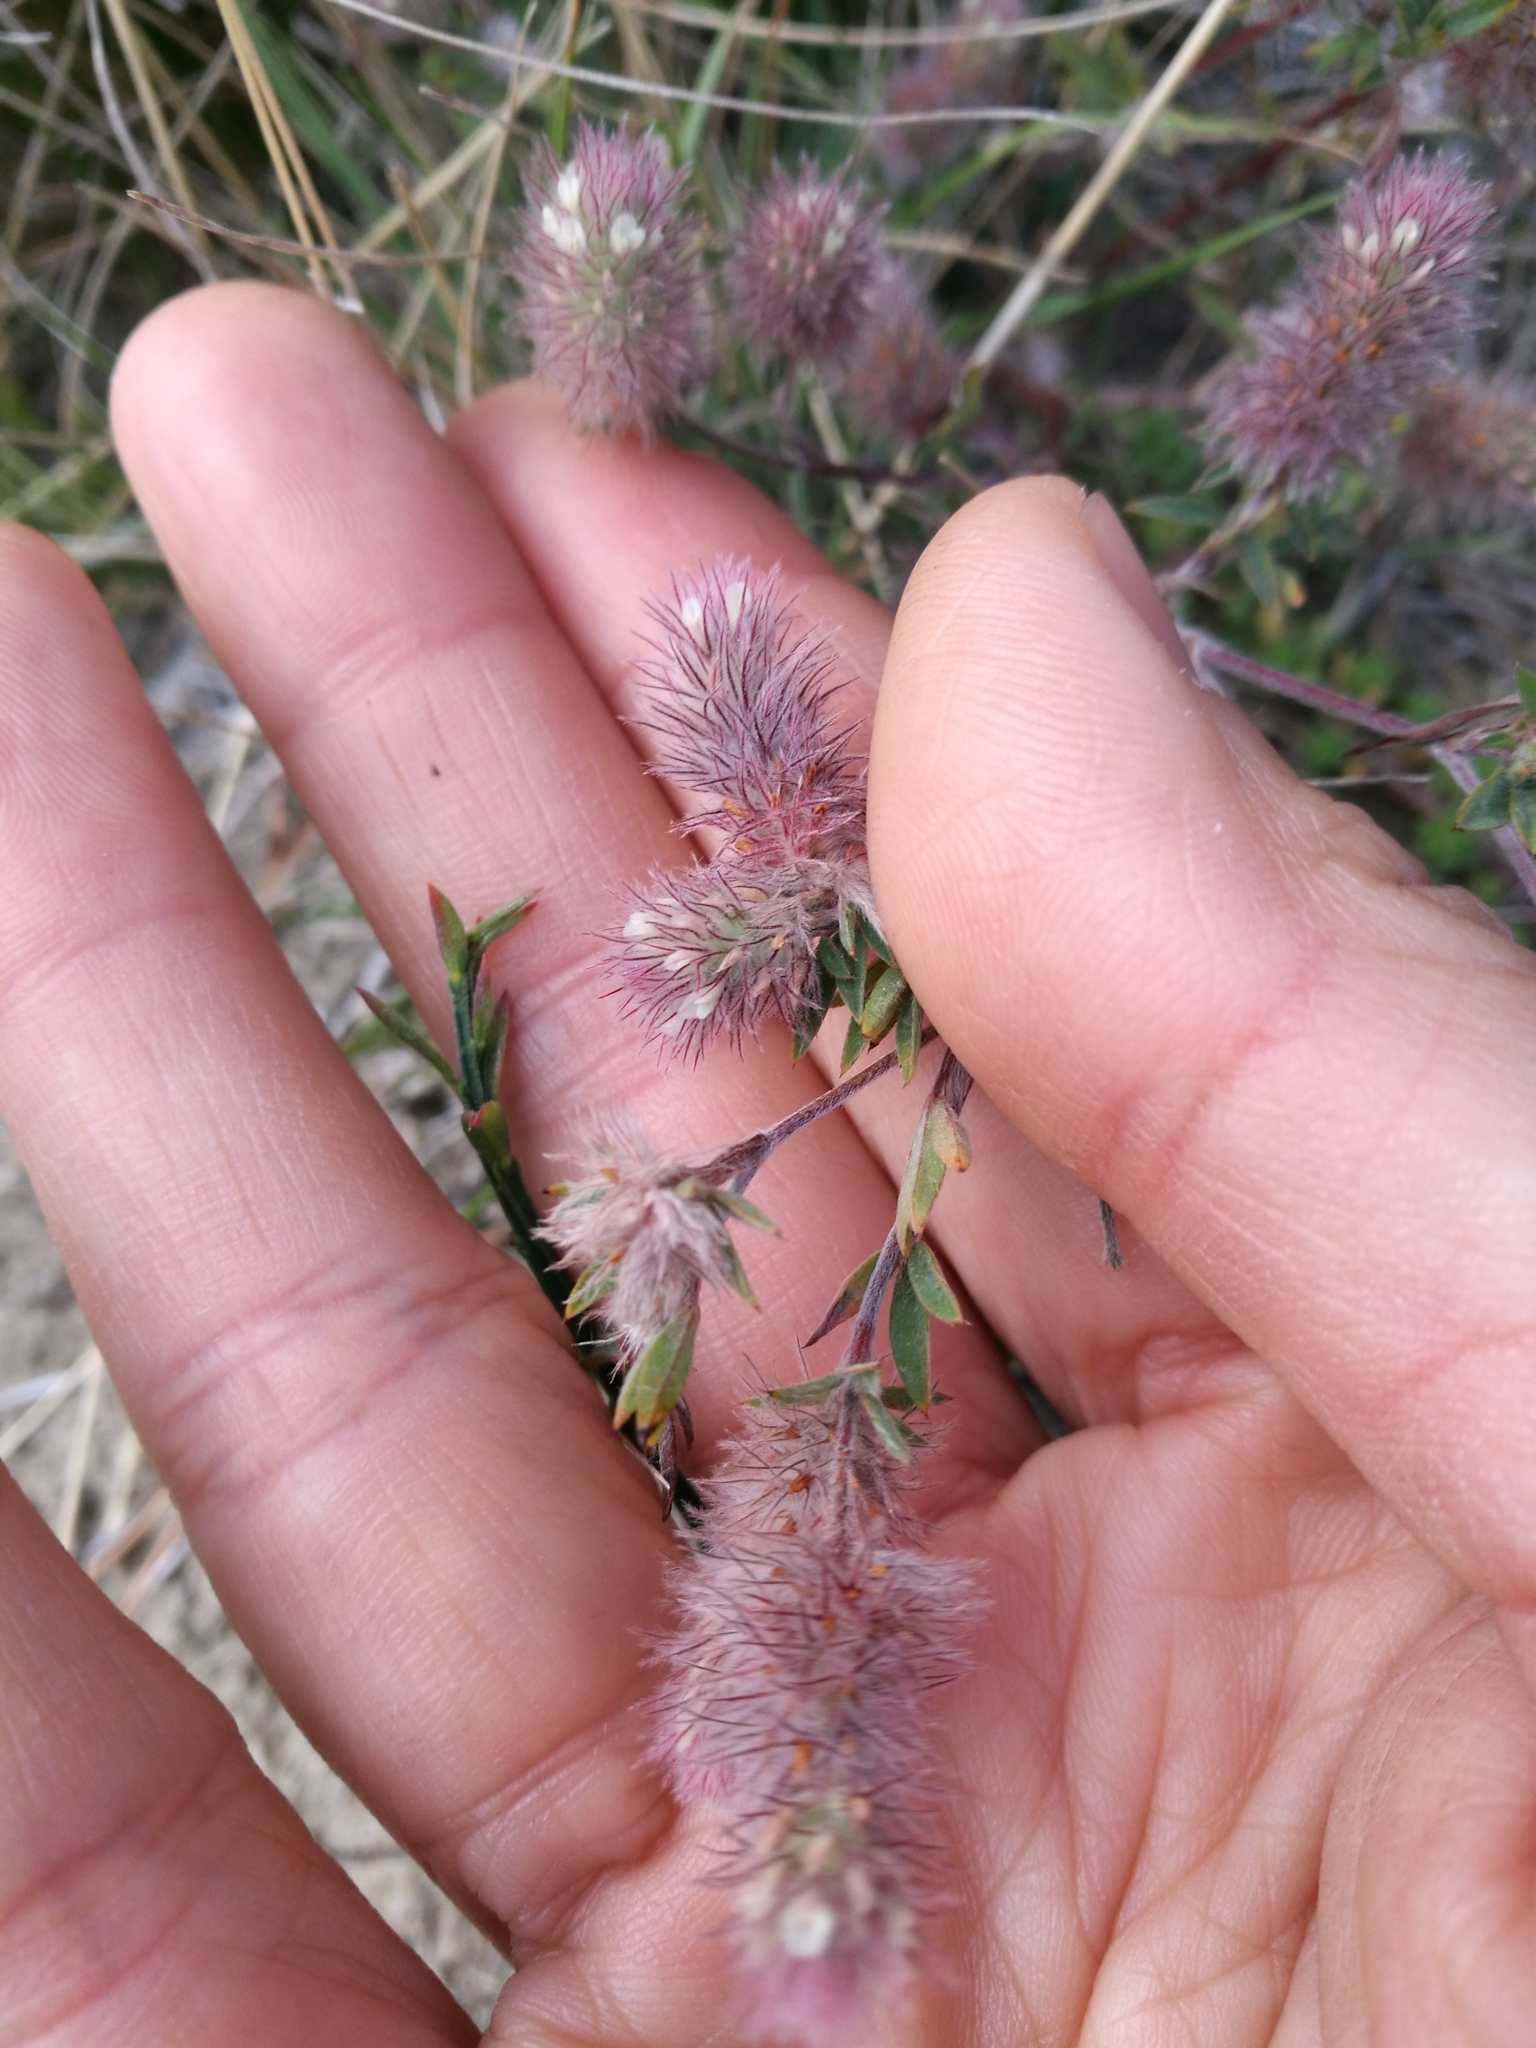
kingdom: Plantae
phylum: Tracheophyta
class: Magnoliopsida
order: Fabales
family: Fabaceae
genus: Trifolium
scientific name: Trifolium arvense
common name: Hare's-foot clover
